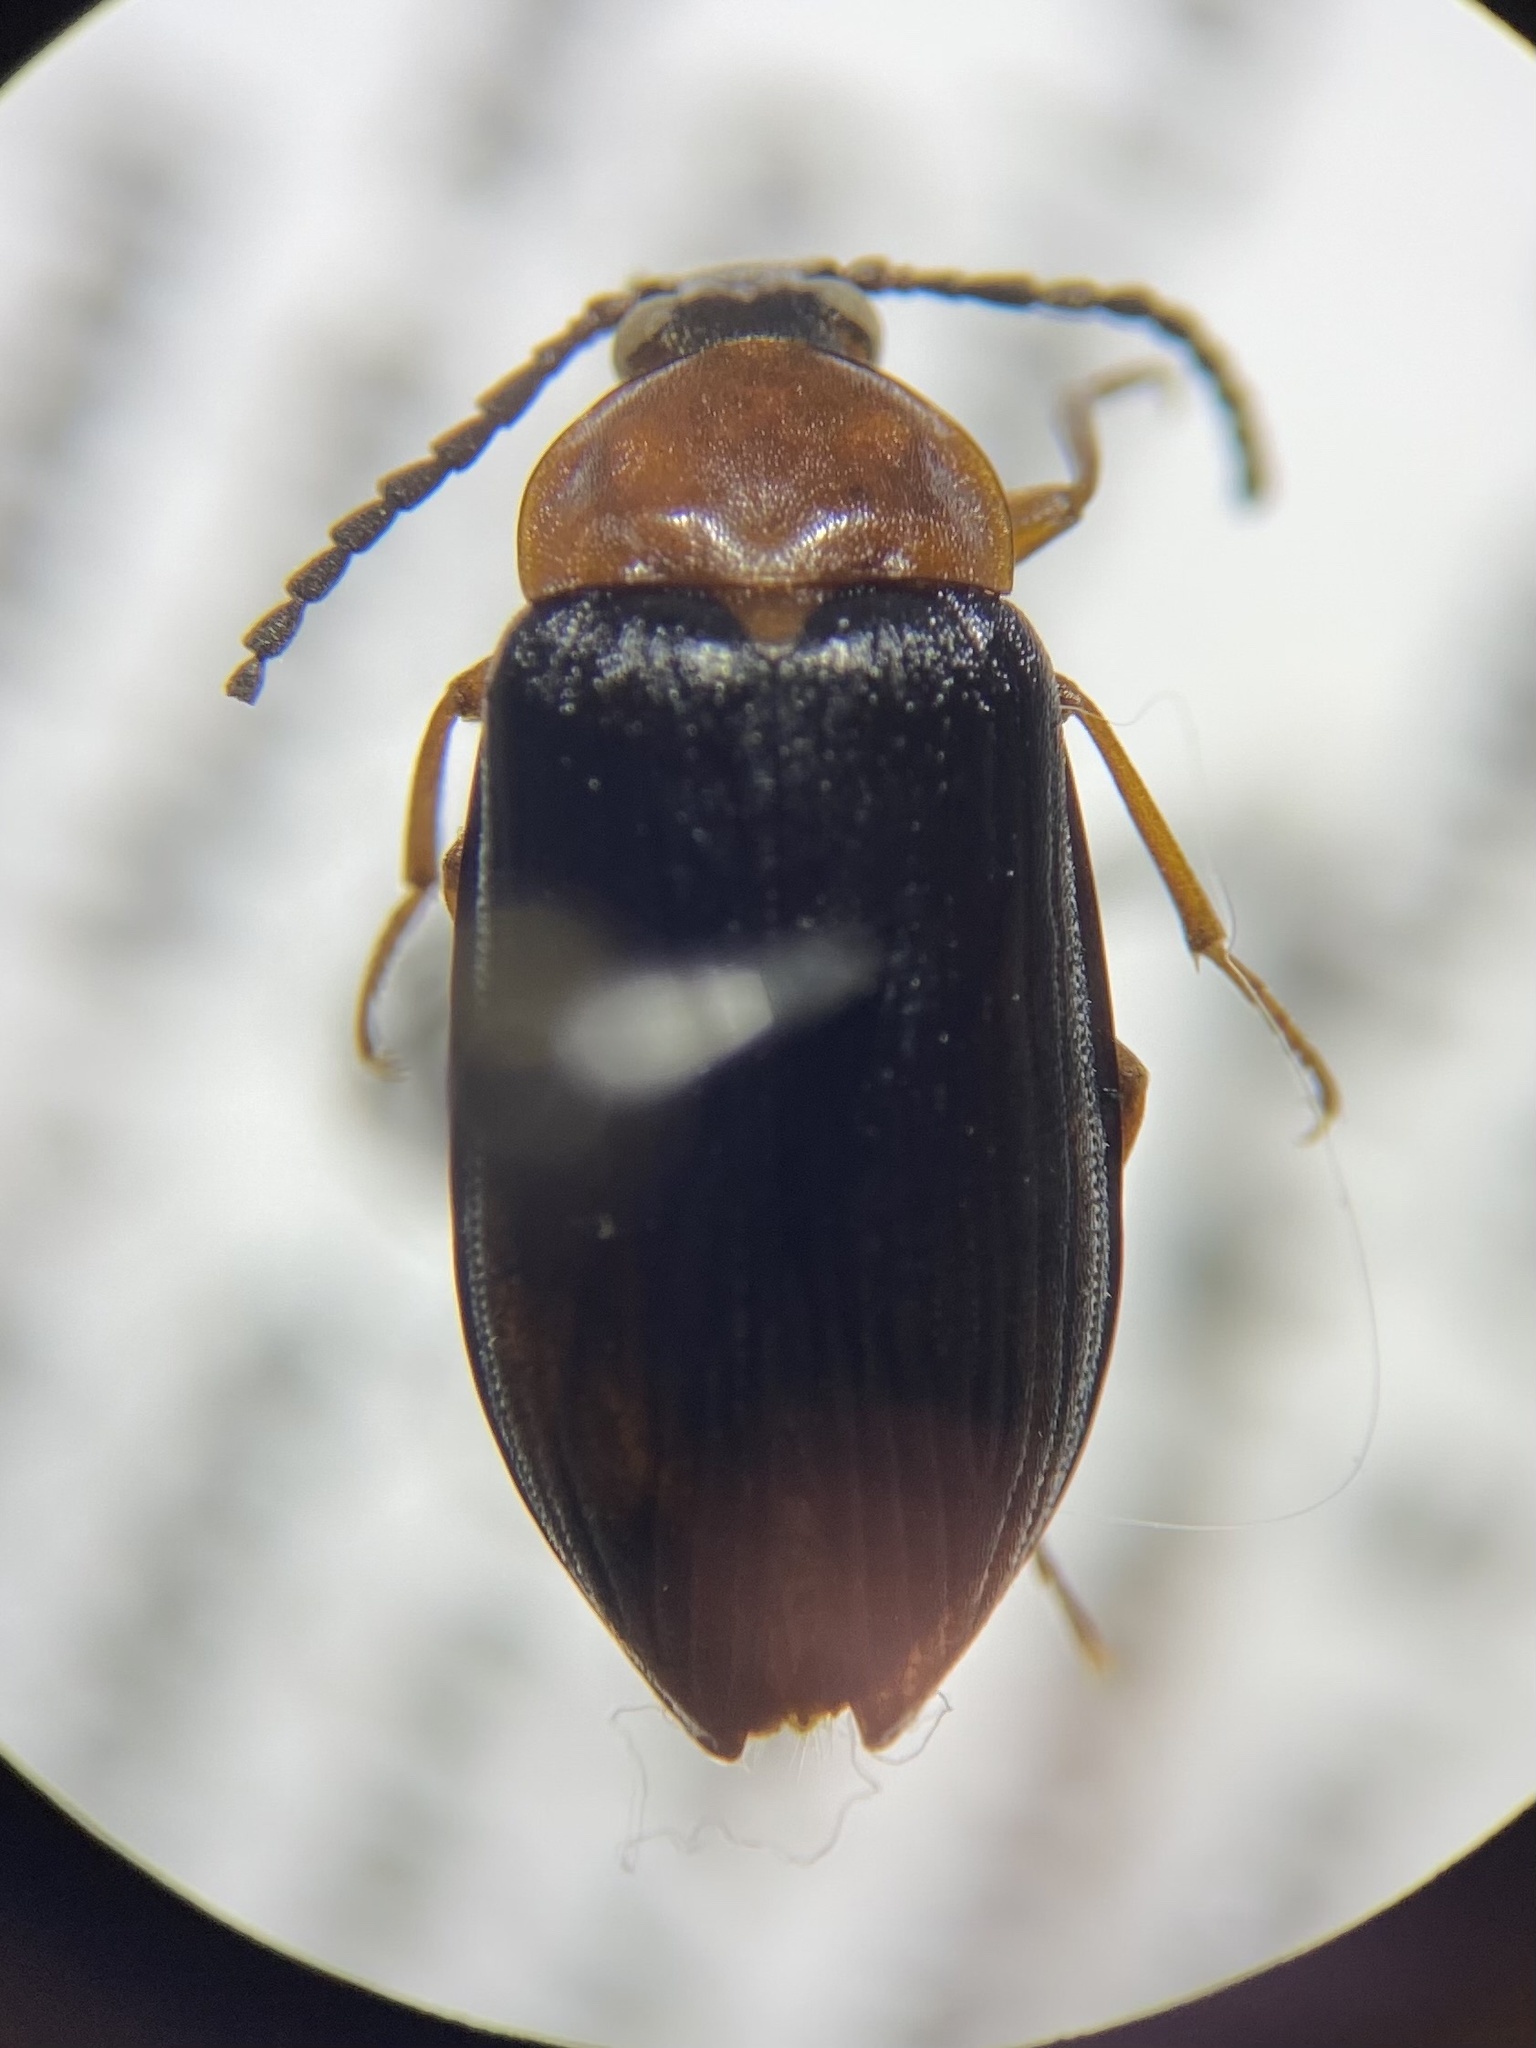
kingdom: Animalia
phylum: Arthropoda
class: Insecta
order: Coleoptera
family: Tenebrionidae
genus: Chromatia
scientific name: Chromatia amoena
